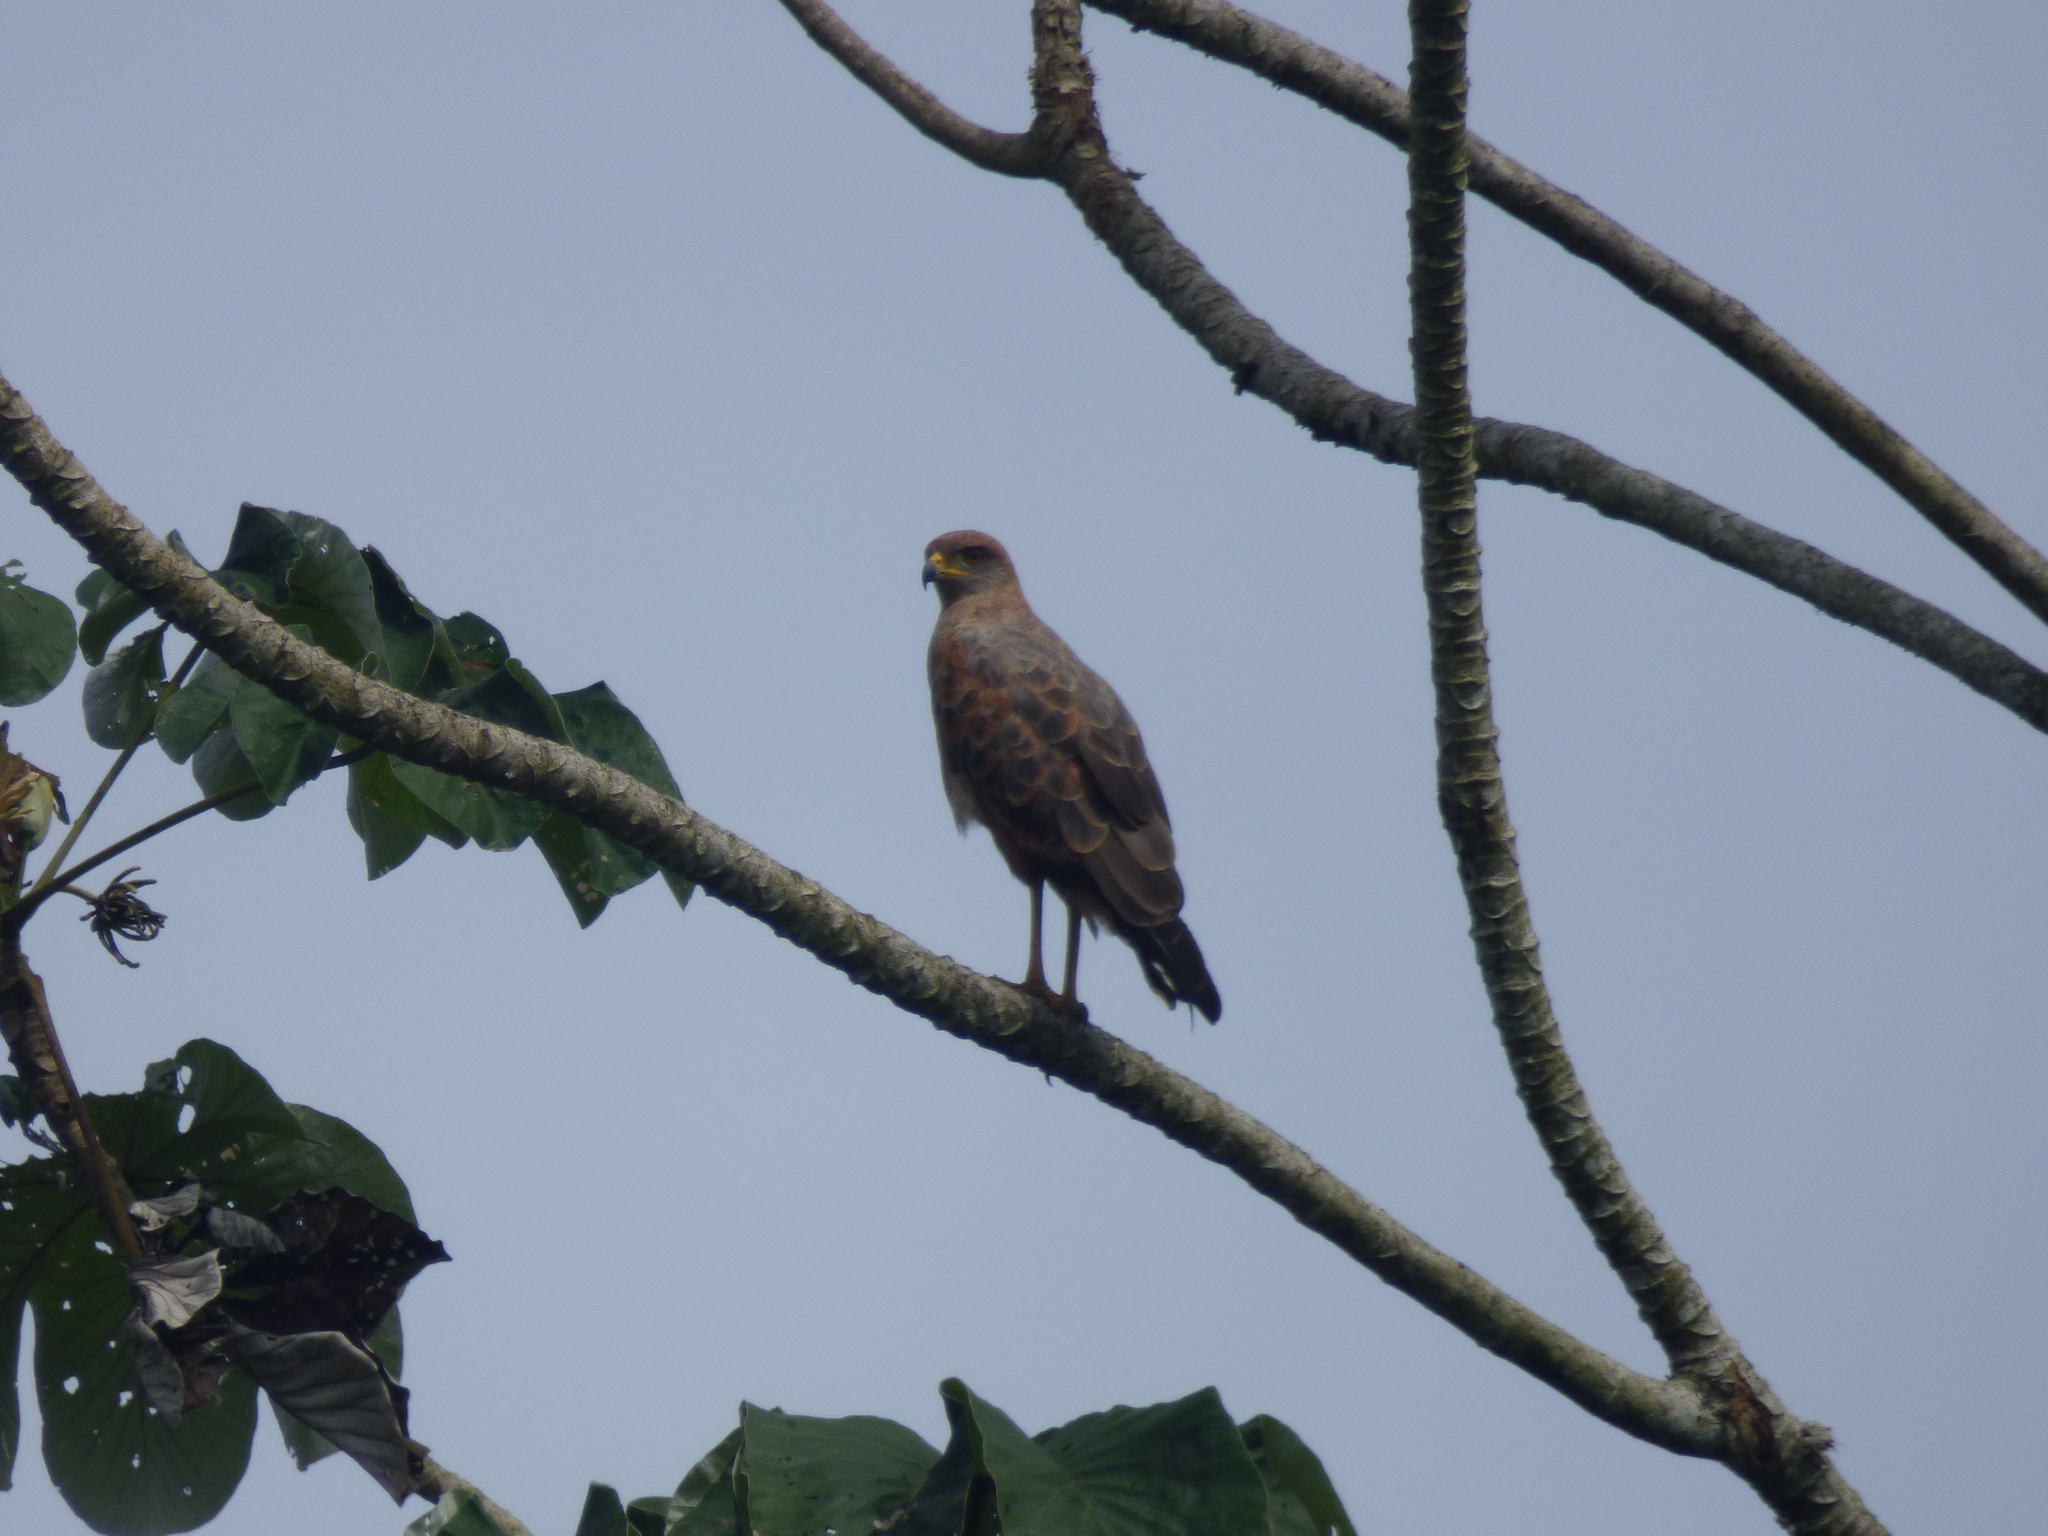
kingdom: Animalia
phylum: Chordata
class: Aves
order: Accipitriformes
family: Accipitridae
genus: Buteogallus
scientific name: Buteogallus meridionalis
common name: Savanna hawk
